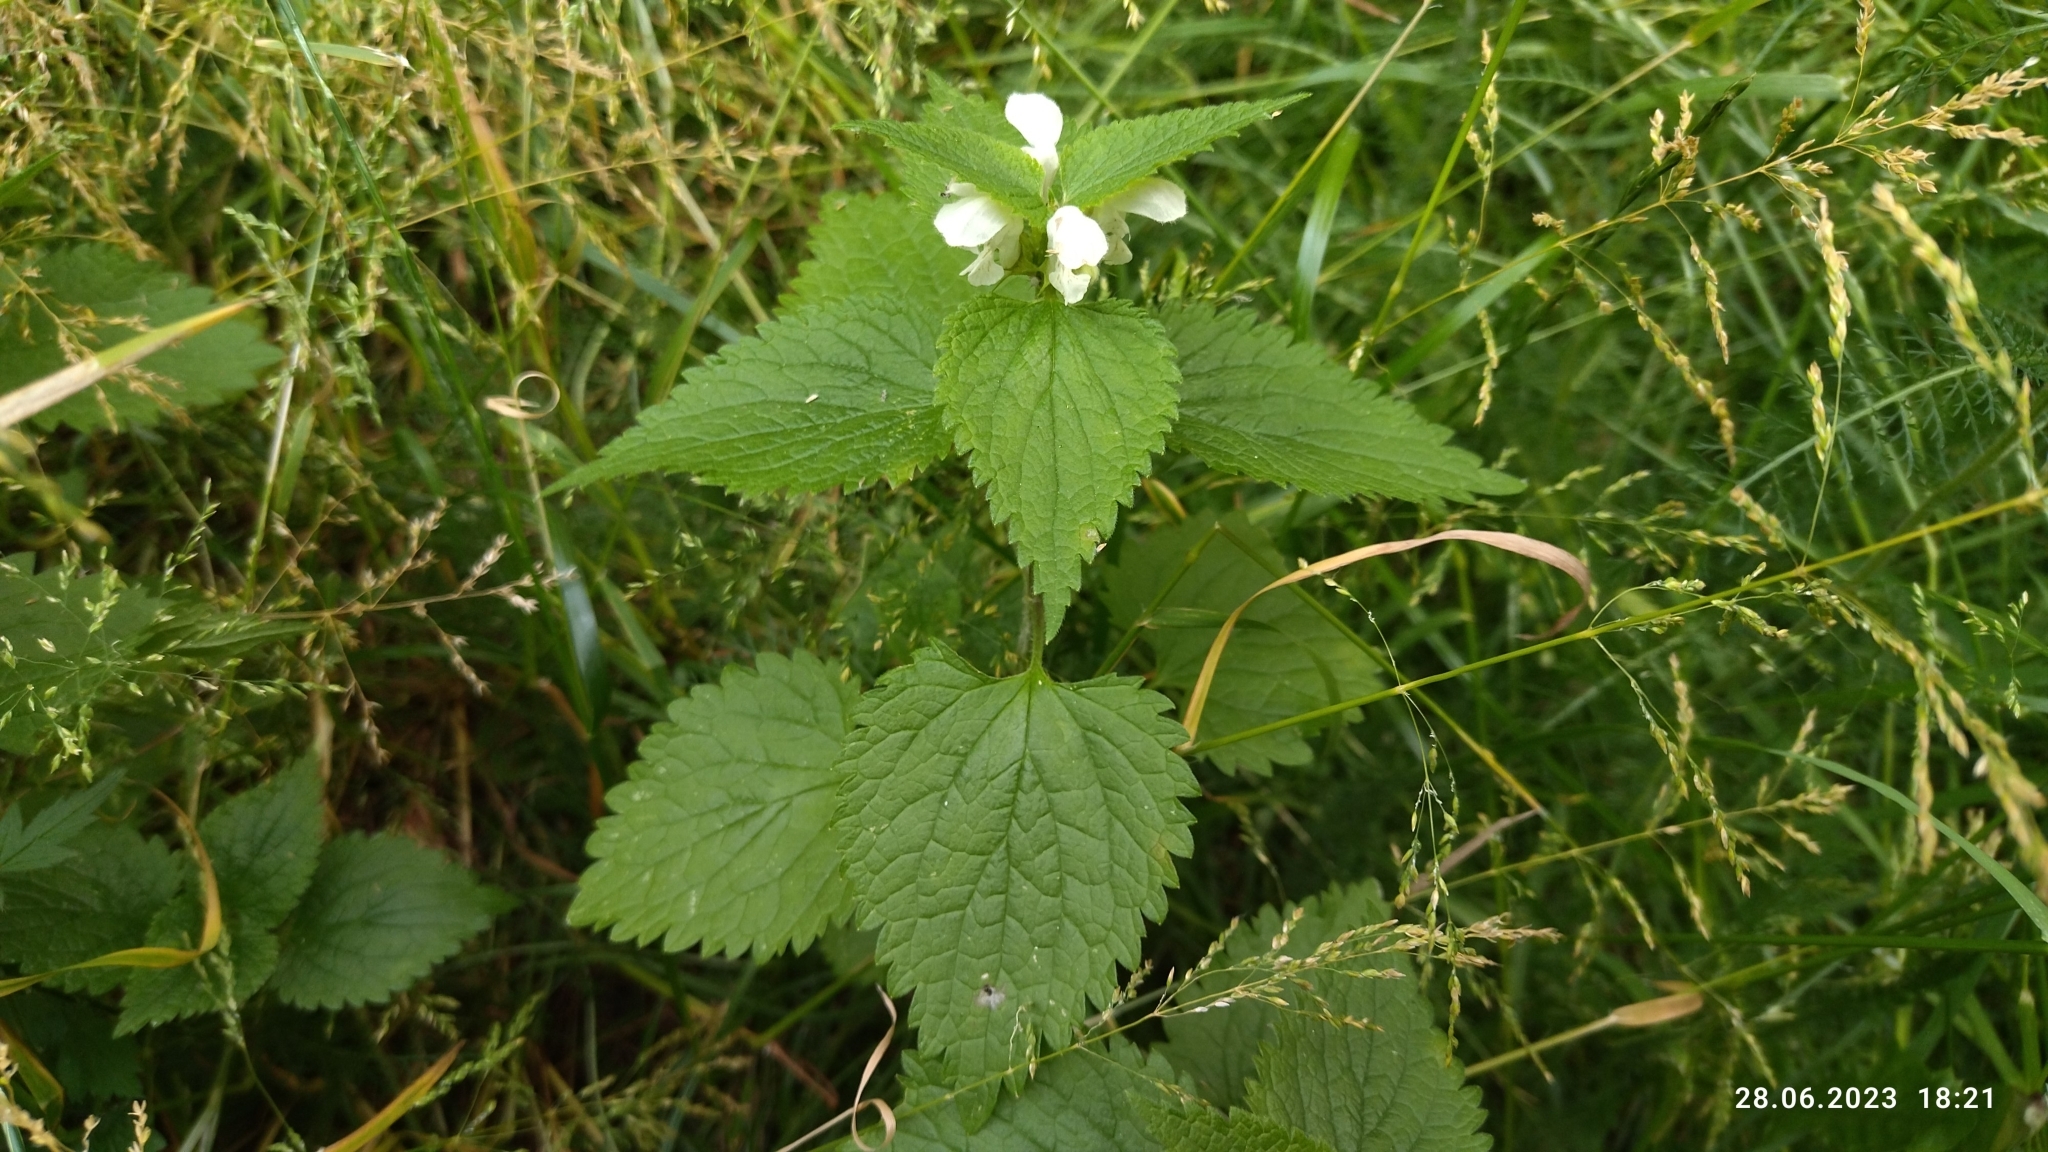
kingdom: Plantae
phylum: Tracheophyta
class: Magnoliopsida
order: Lamiales
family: Lamiaceae
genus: Lamium
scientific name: Lamium album
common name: White dead-nettle
